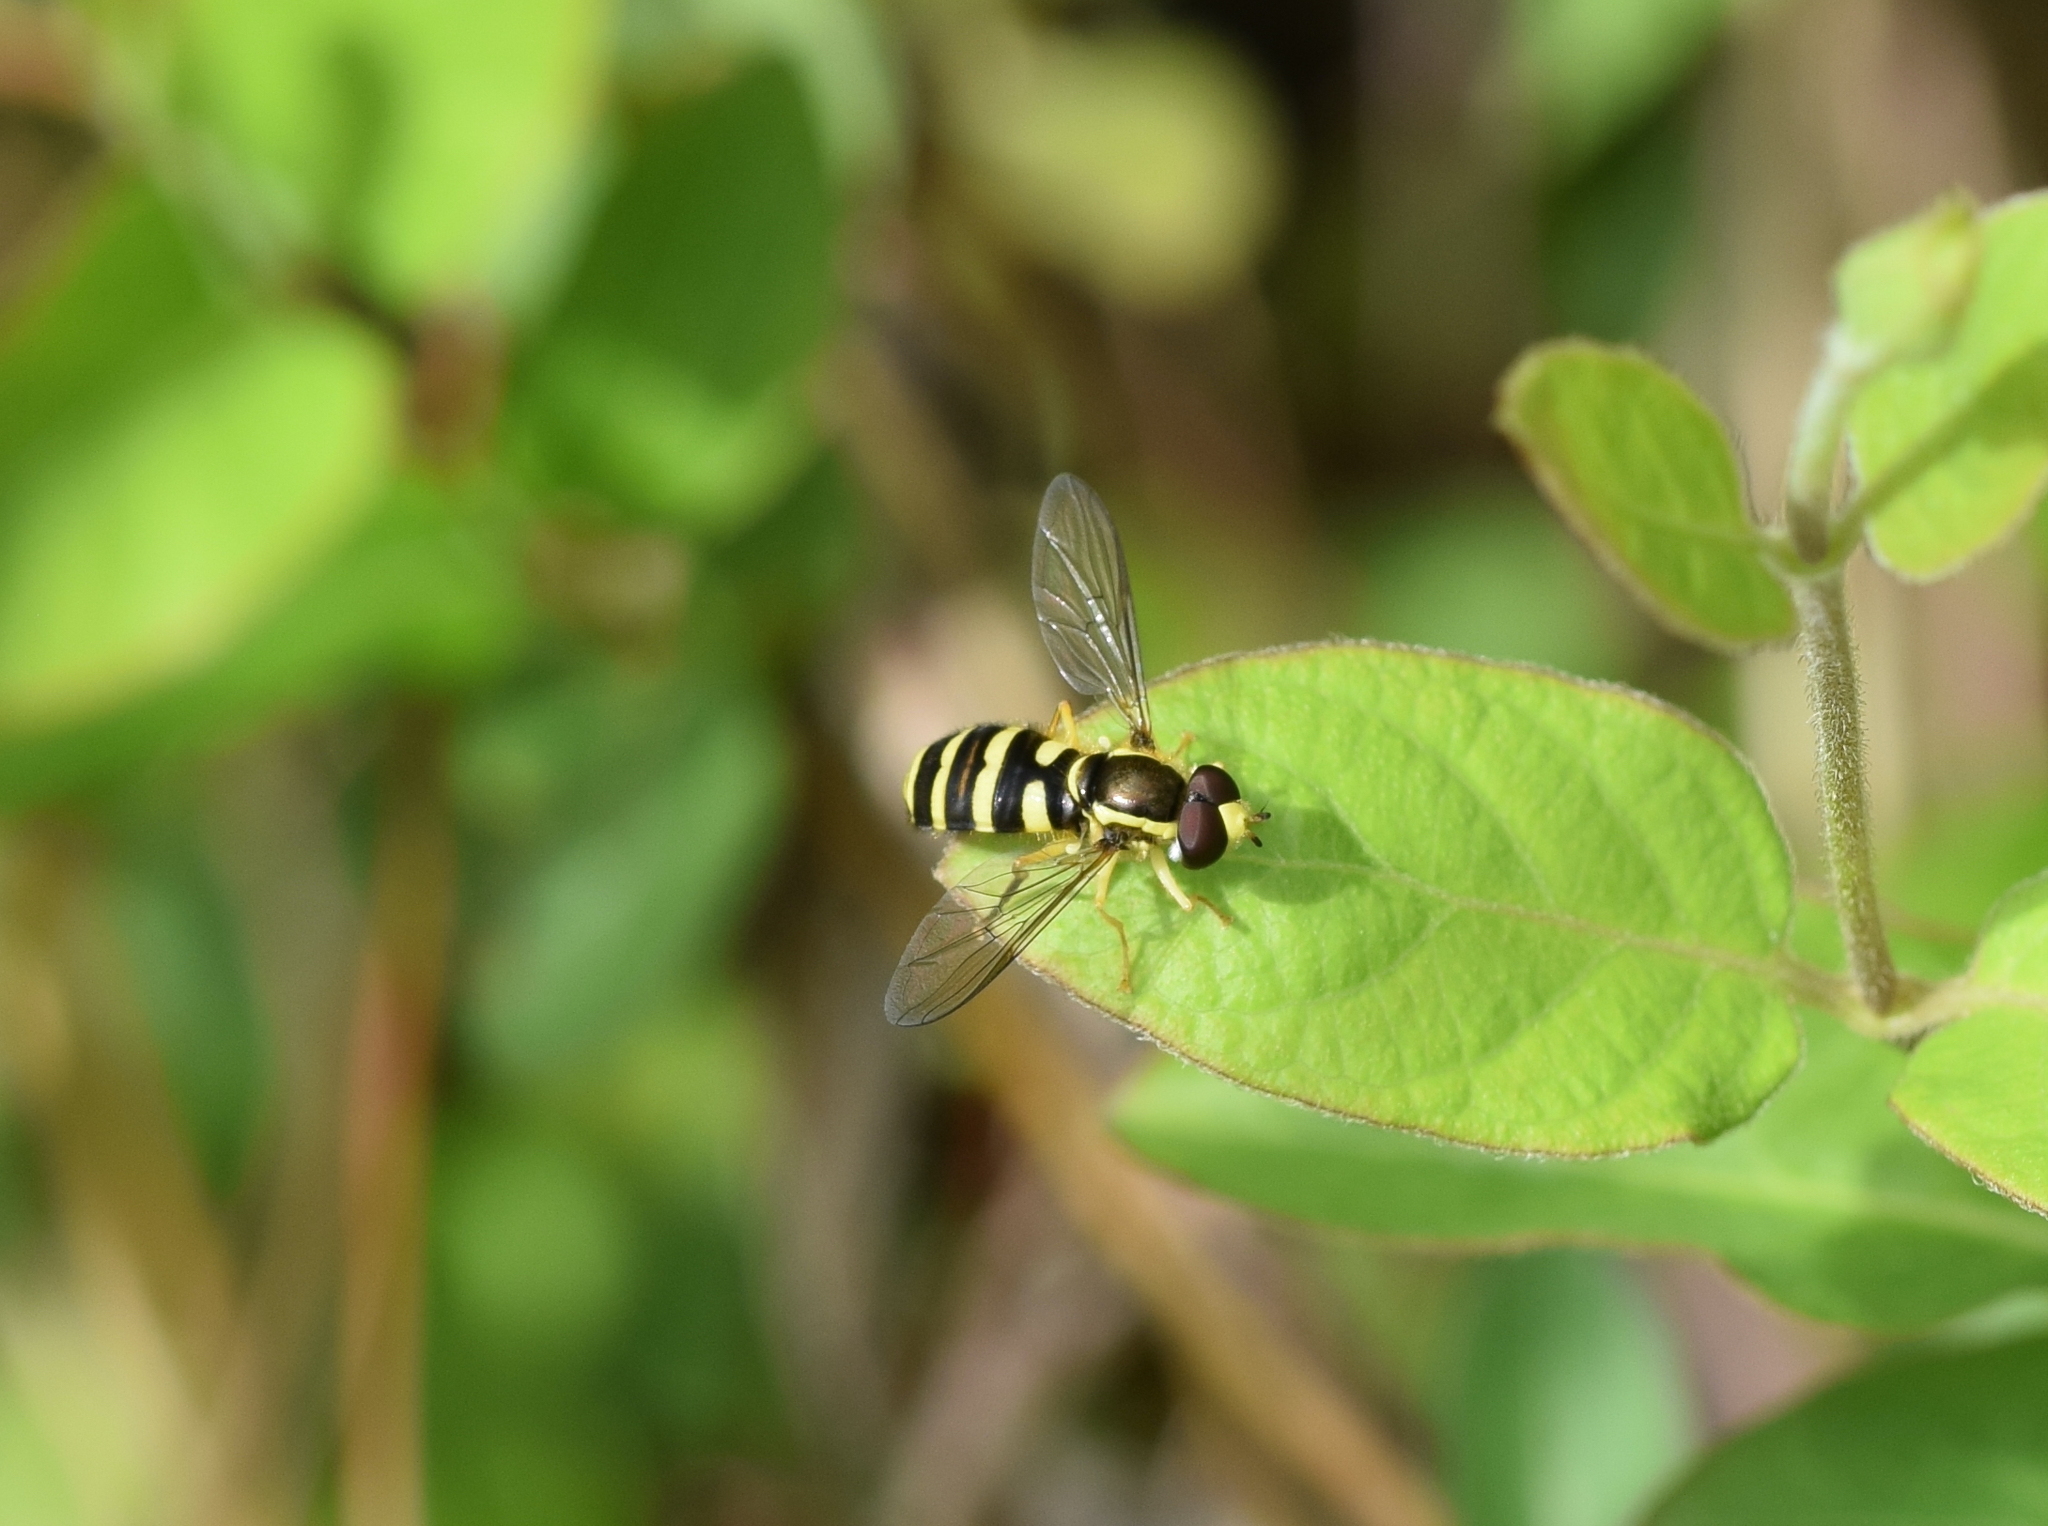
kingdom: Animalia
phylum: Arthropoda
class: Insecta
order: Diptera
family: Syrphidae
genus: Philhelius
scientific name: Philhelius flavipes
